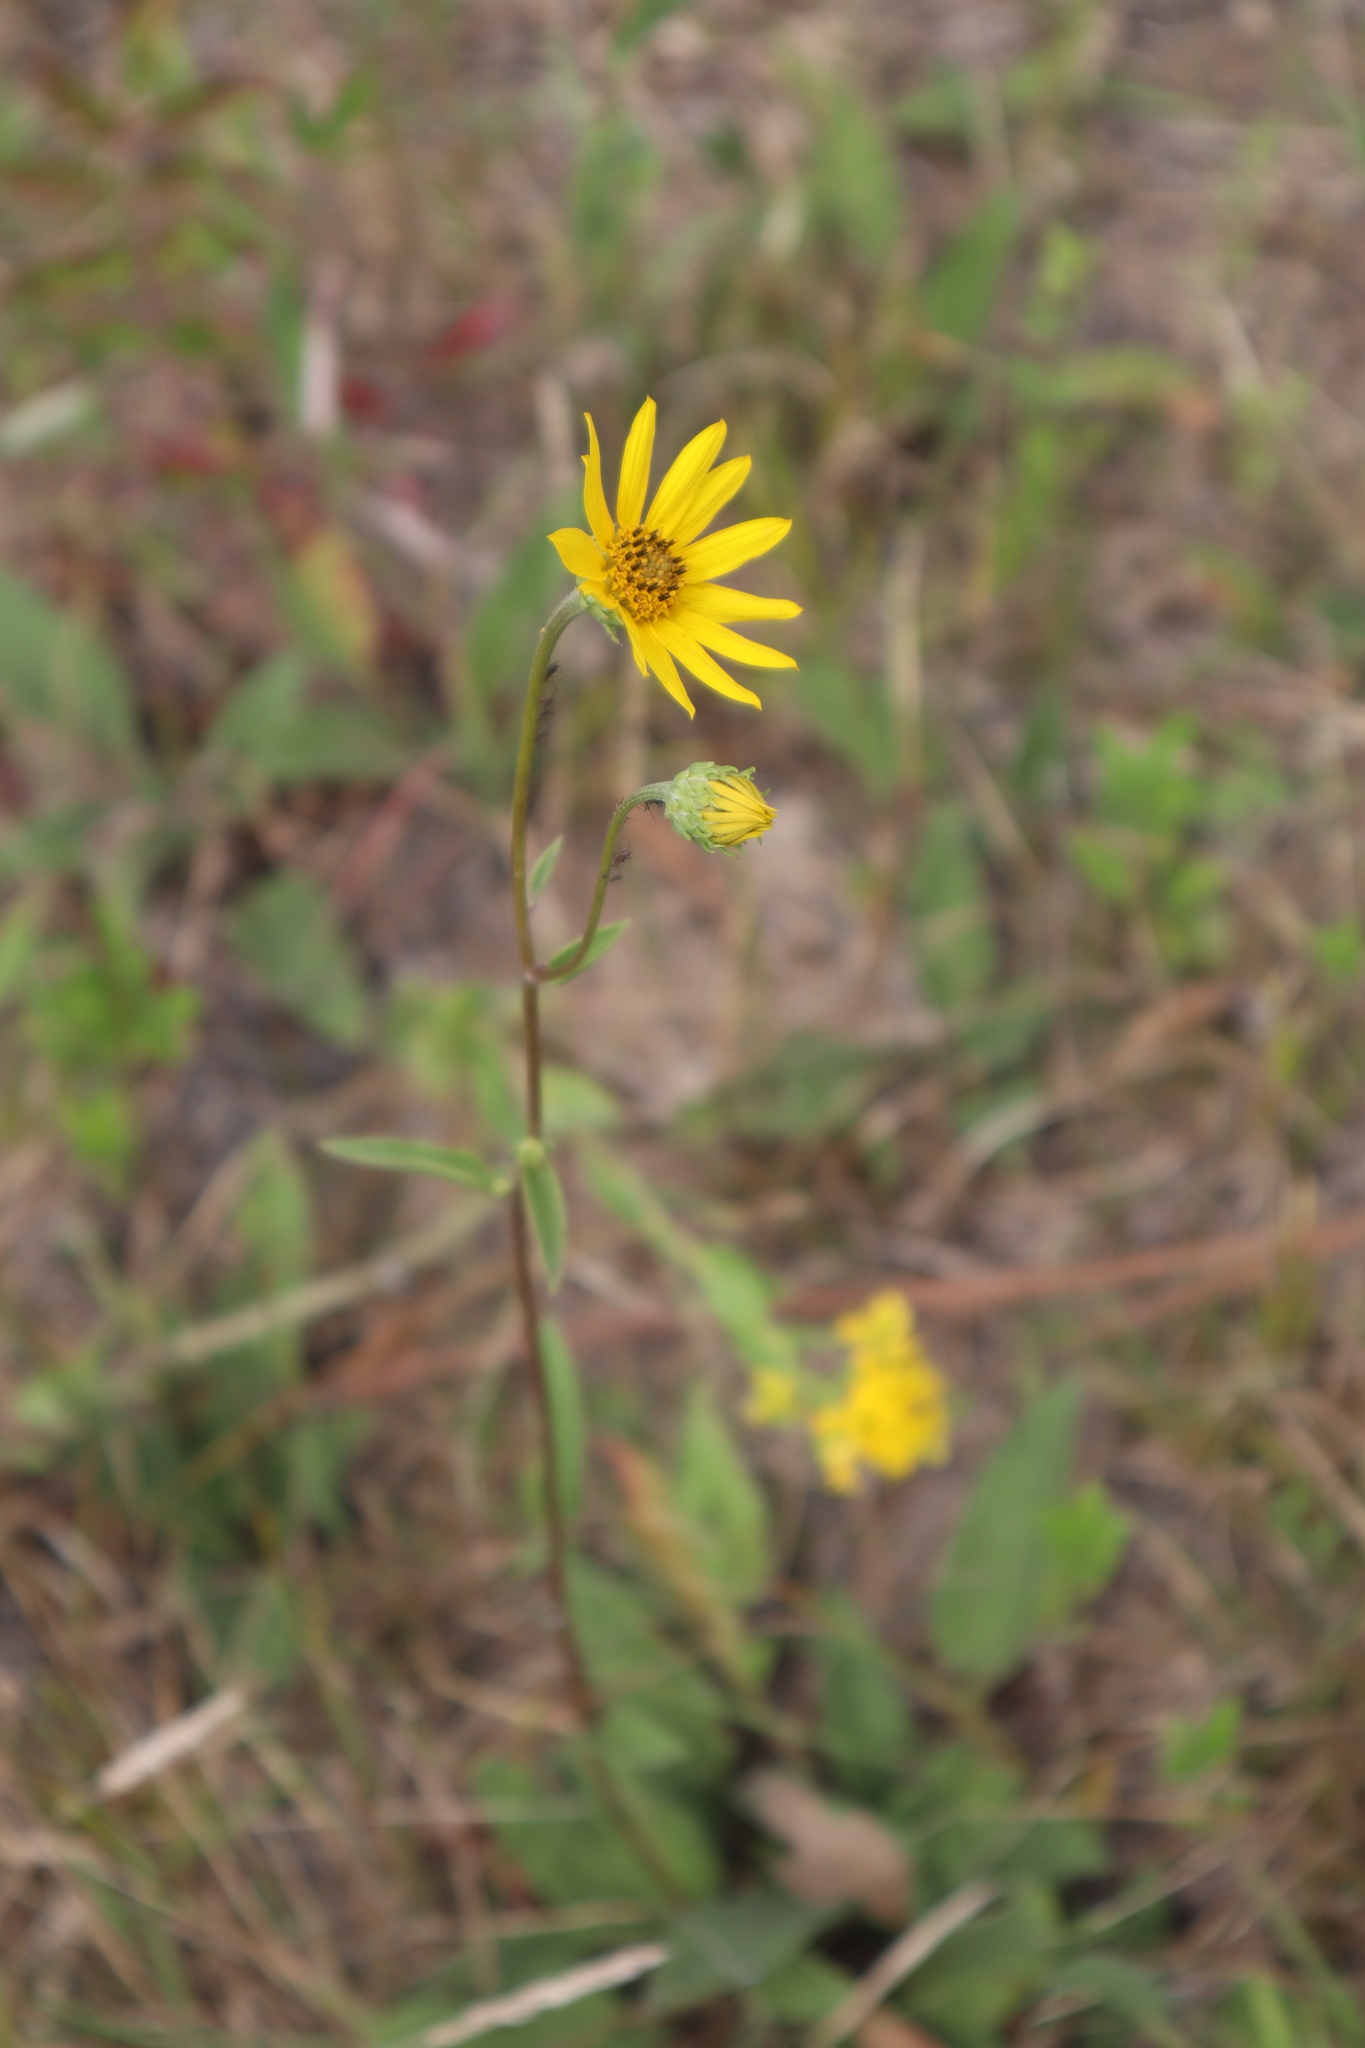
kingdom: Plantae
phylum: Tracheophyta
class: Magnoliopsida
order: Asterales
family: Asteraceae
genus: Helianthus
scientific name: Helianthus occidentalis
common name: Western sunflower
